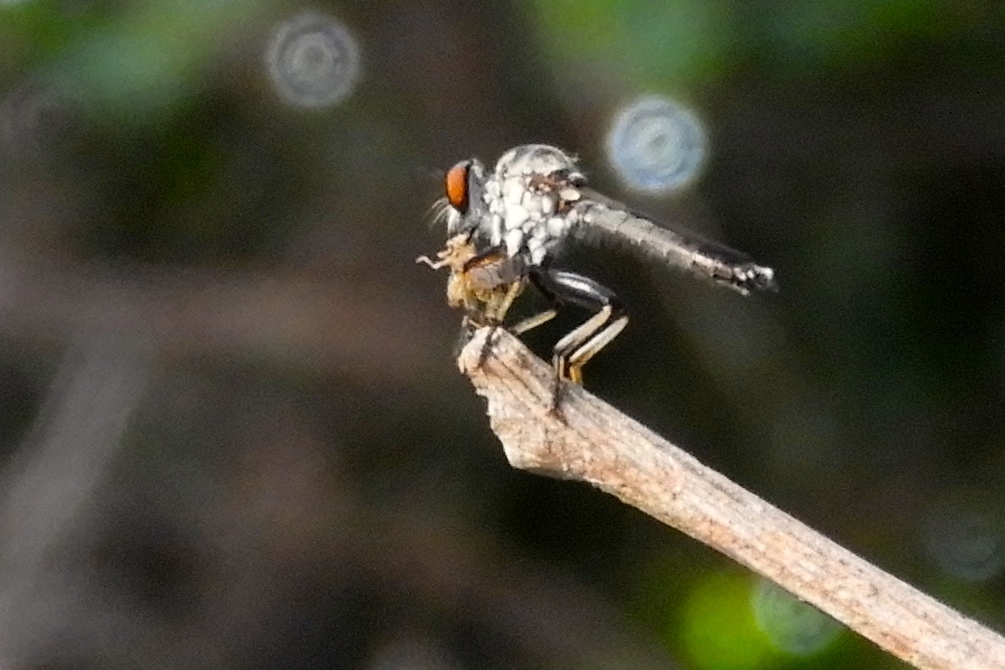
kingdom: Animalia
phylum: Arthropoda
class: Insecta
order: Diptera
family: Asilidae
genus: Ommatius
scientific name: Ommatius
